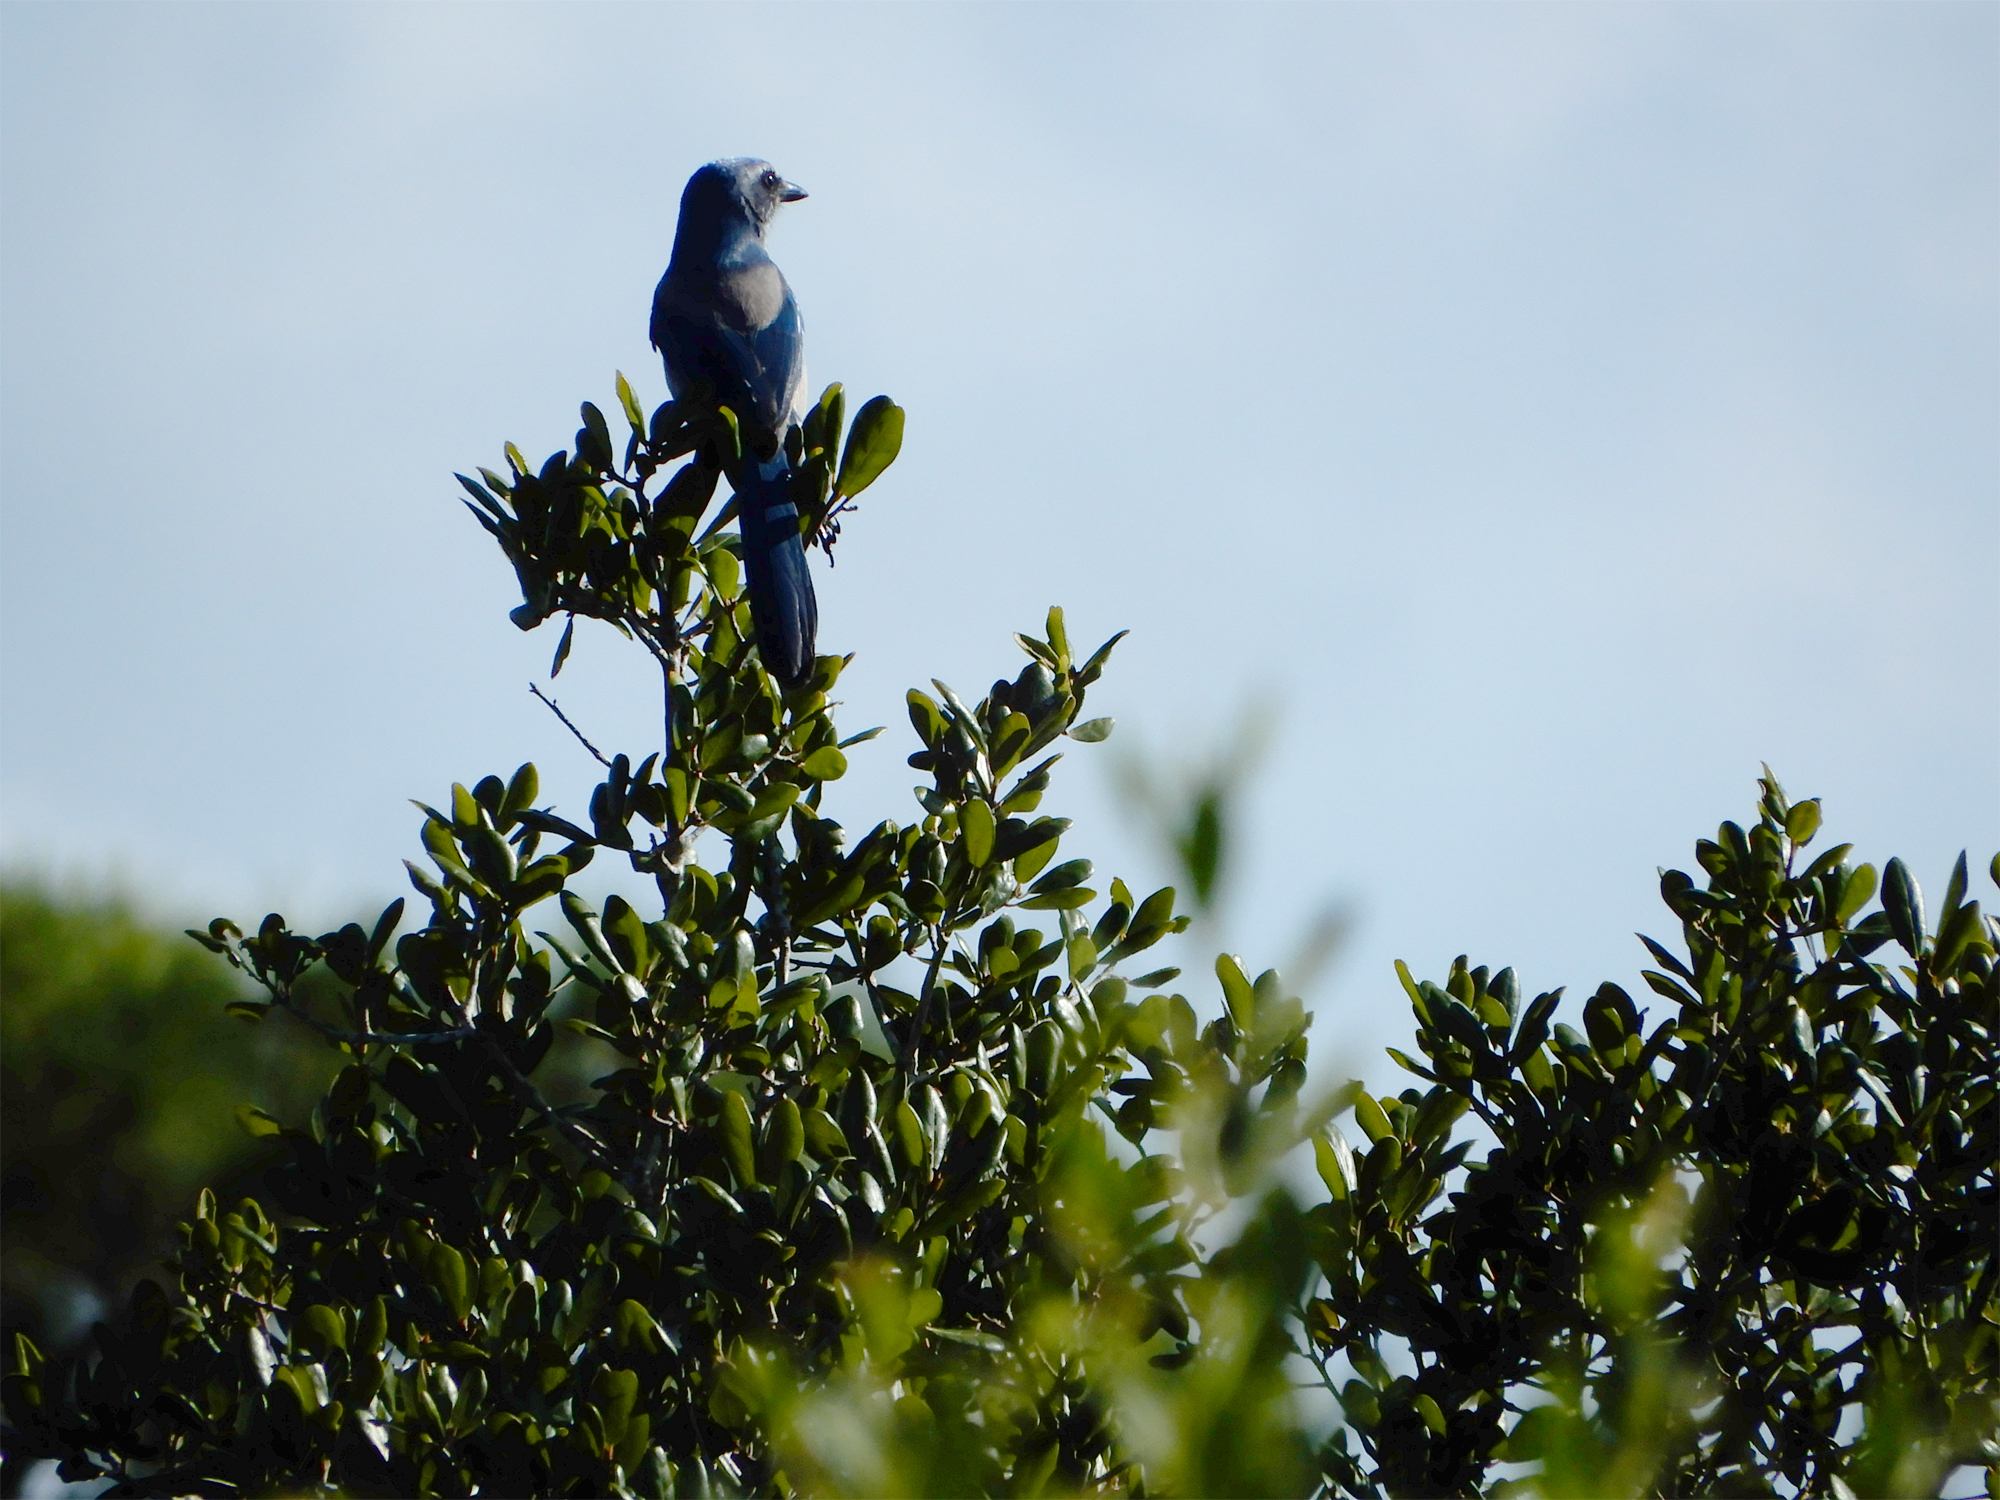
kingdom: Animalia
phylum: Chordata
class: Aves
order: Passeriformes
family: Corvidae
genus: Aphelocoma
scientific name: Aphelocoma coerulescens
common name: Florida scrub jay
